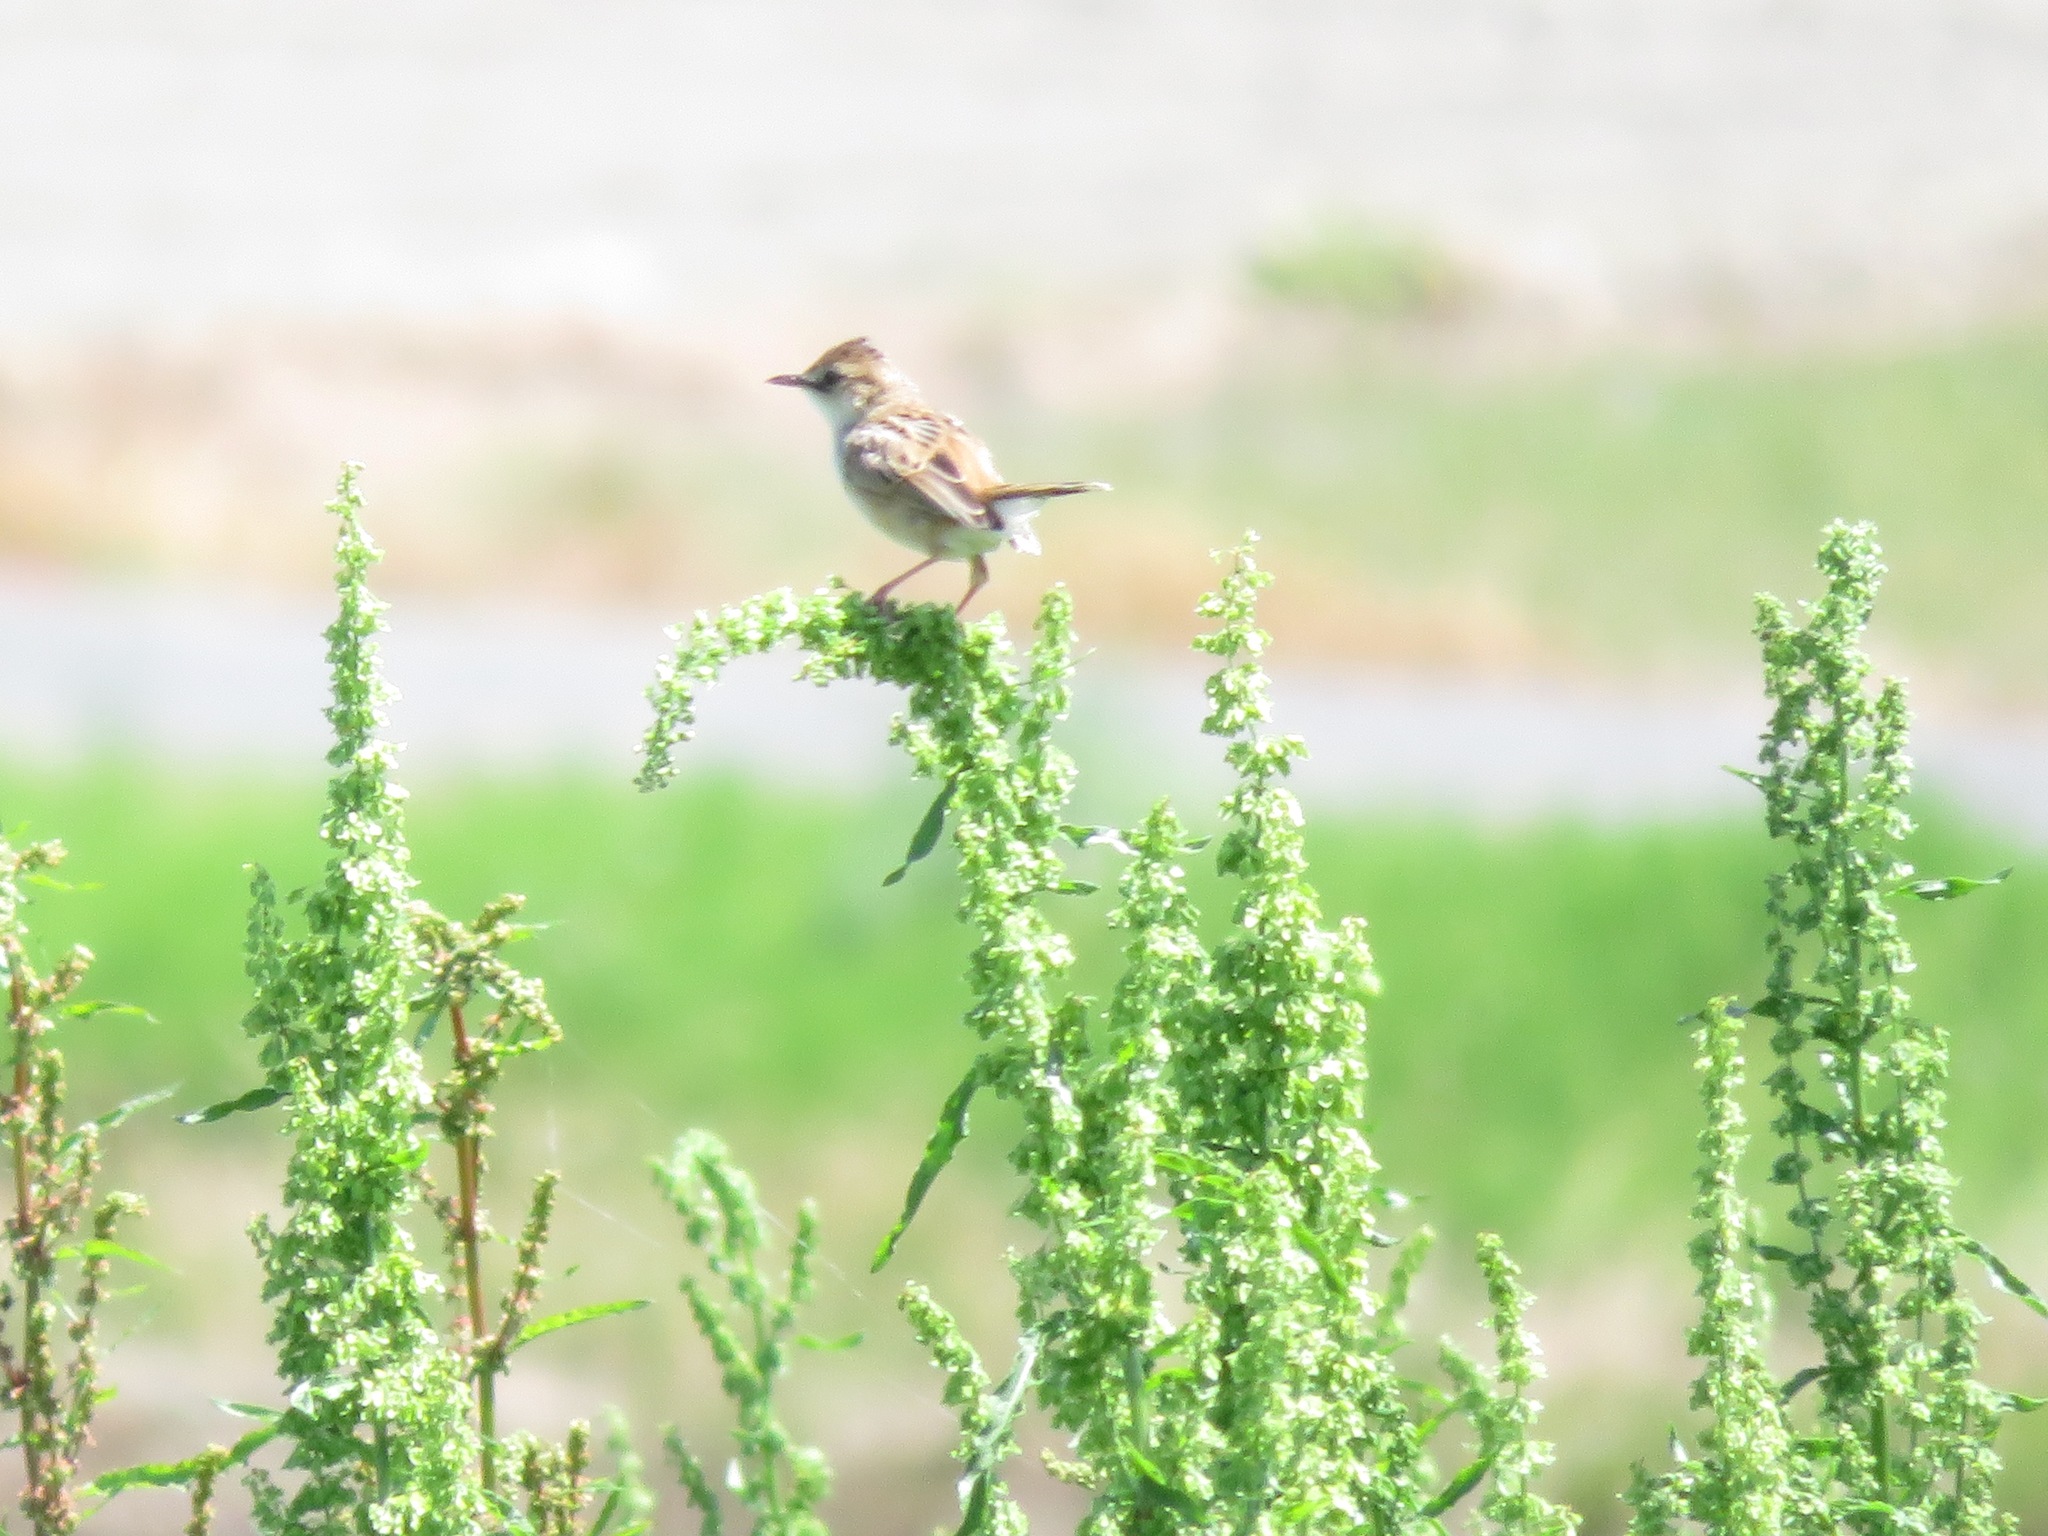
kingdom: Animalia
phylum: Chordata
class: Aves
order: Passeriformes
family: Cisticolidae
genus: Cisticola
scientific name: Cisticola juncidis
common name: Zitting cisticola
